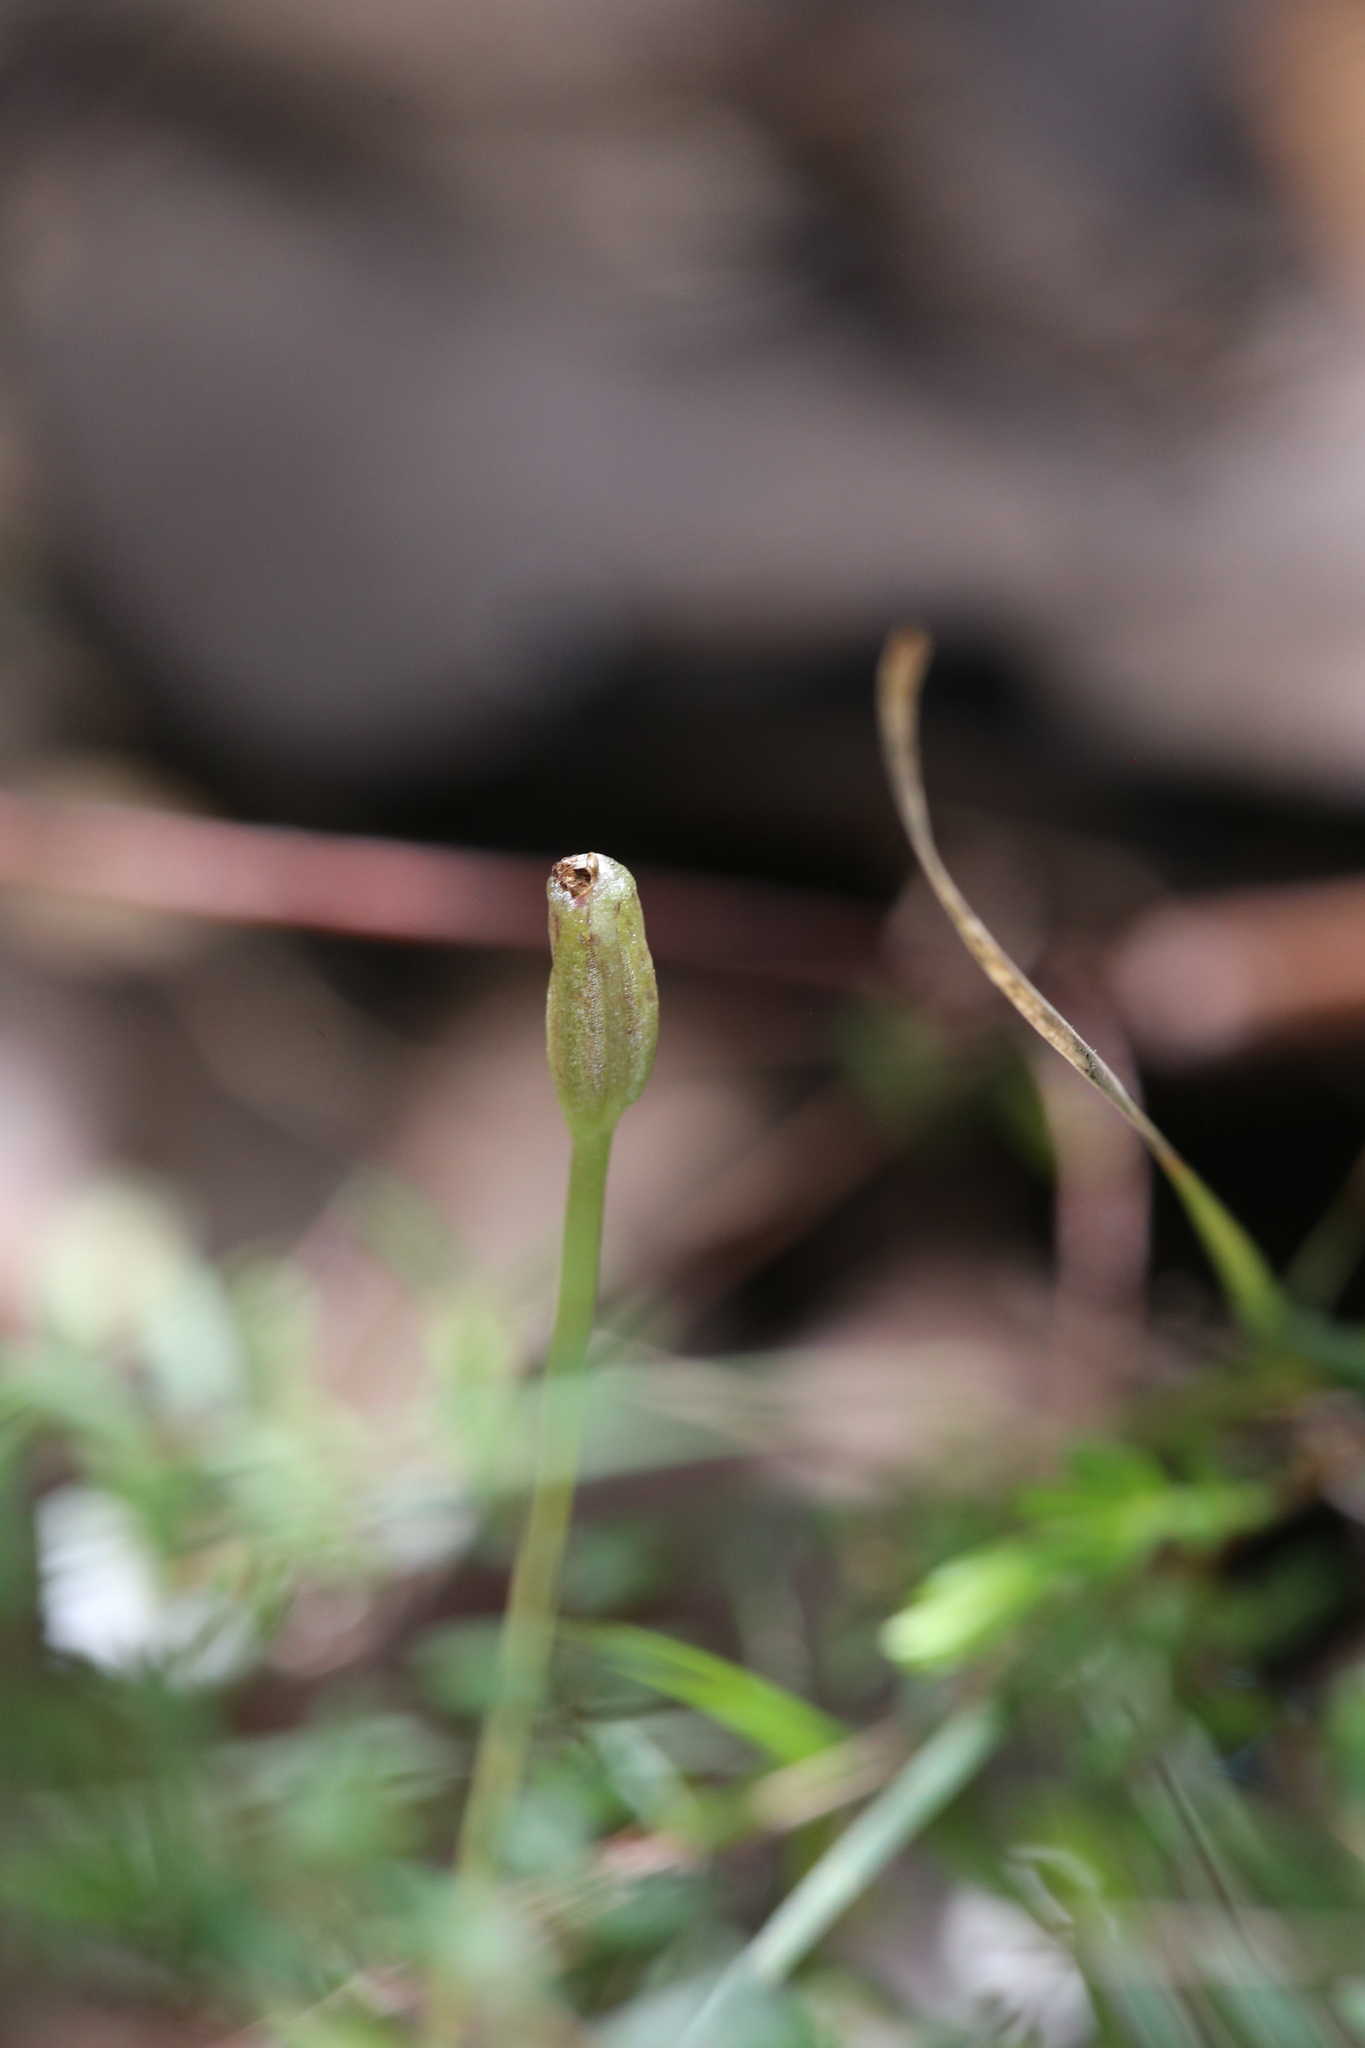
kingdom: Plantae
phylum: Tracheophyta
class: Liliopsida
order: Asparagales
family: Orchidaceae
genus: Corybas
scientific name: Corybas recurvus
